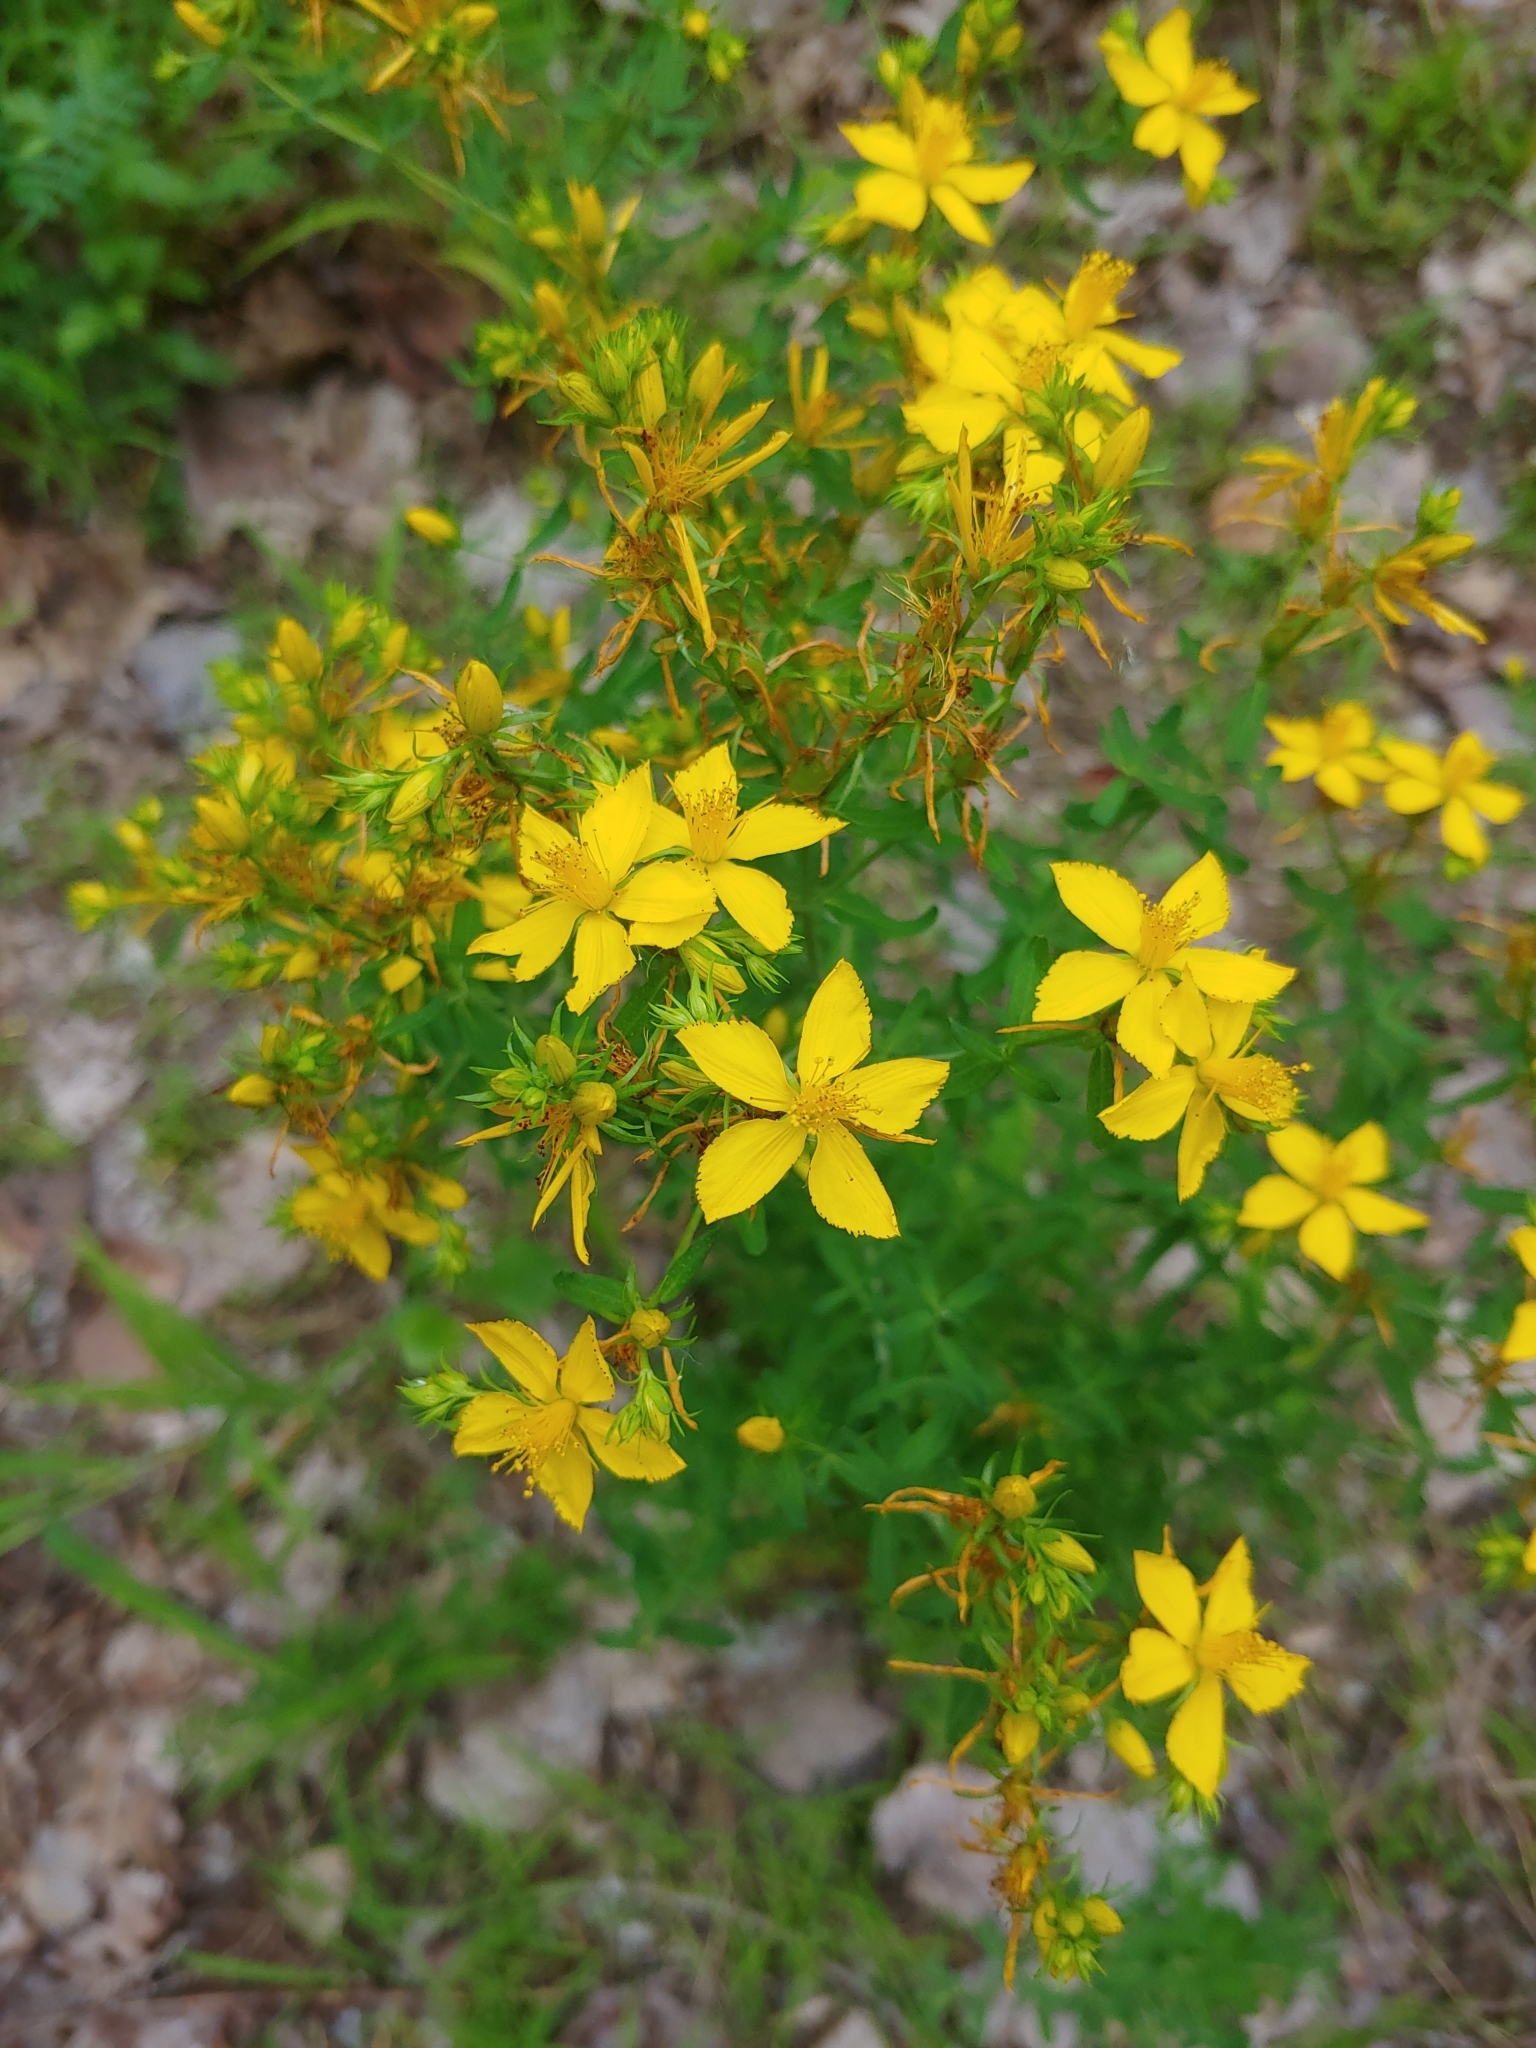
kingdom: Plantae
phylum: Tracheophyta
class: Magnoliopsida
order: Malpighiales
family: Hypericaceae
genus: Hypericum
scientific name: Hypericum perforatum
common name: Common st. johnswort
